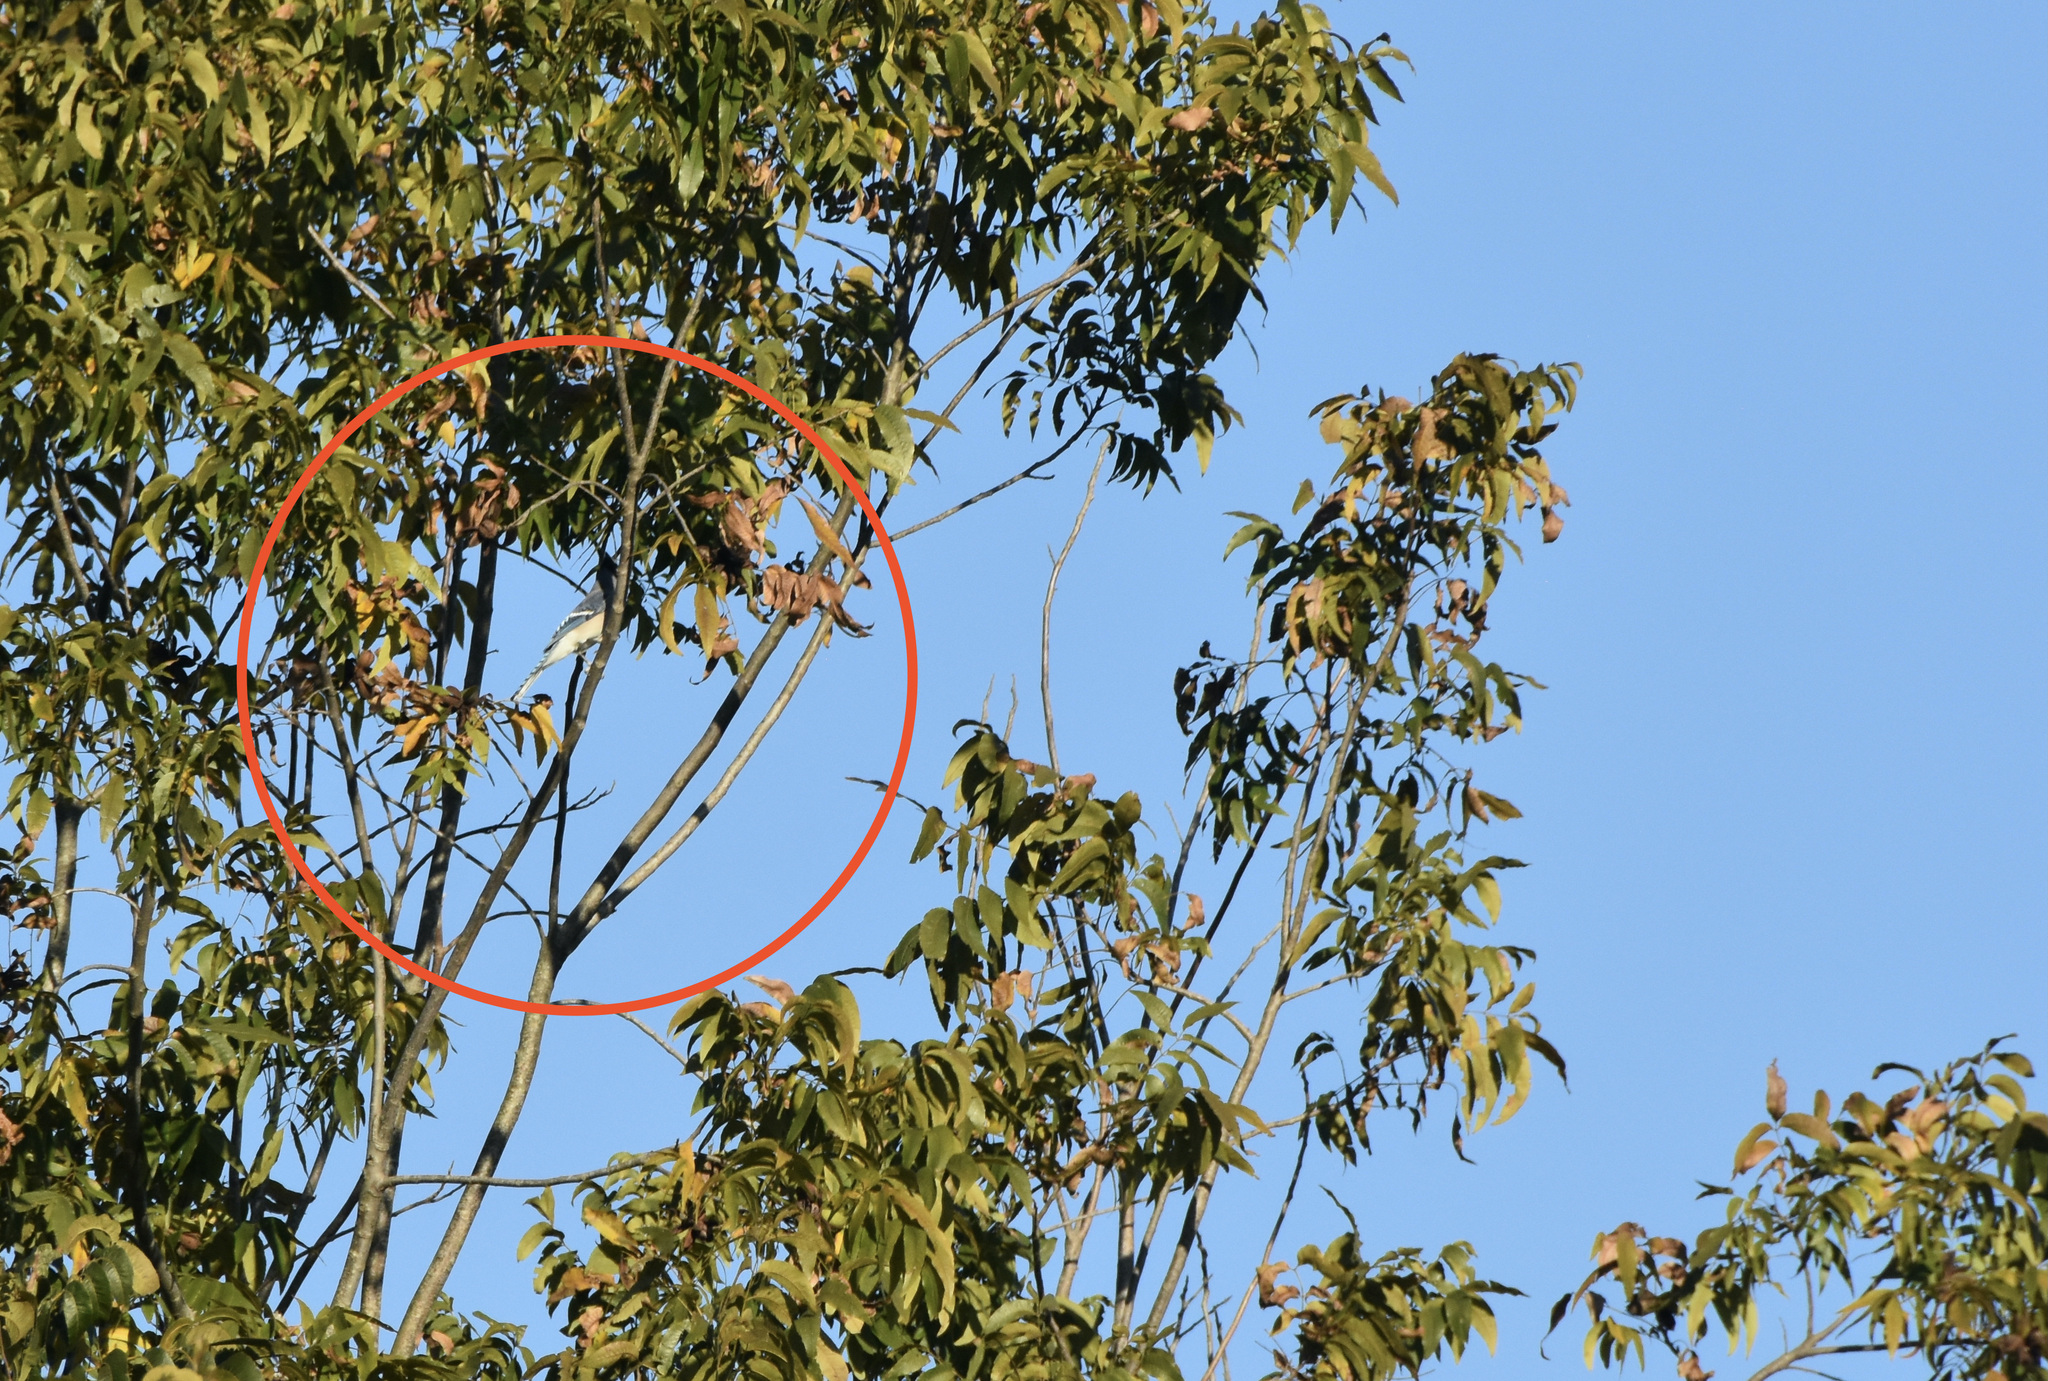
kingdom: Animalia
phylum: Chordata
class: Aves
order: Passeriformes
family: Corvidae
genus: Cyanocitta
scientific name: Cyanocitta cristata
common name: Blue jay
